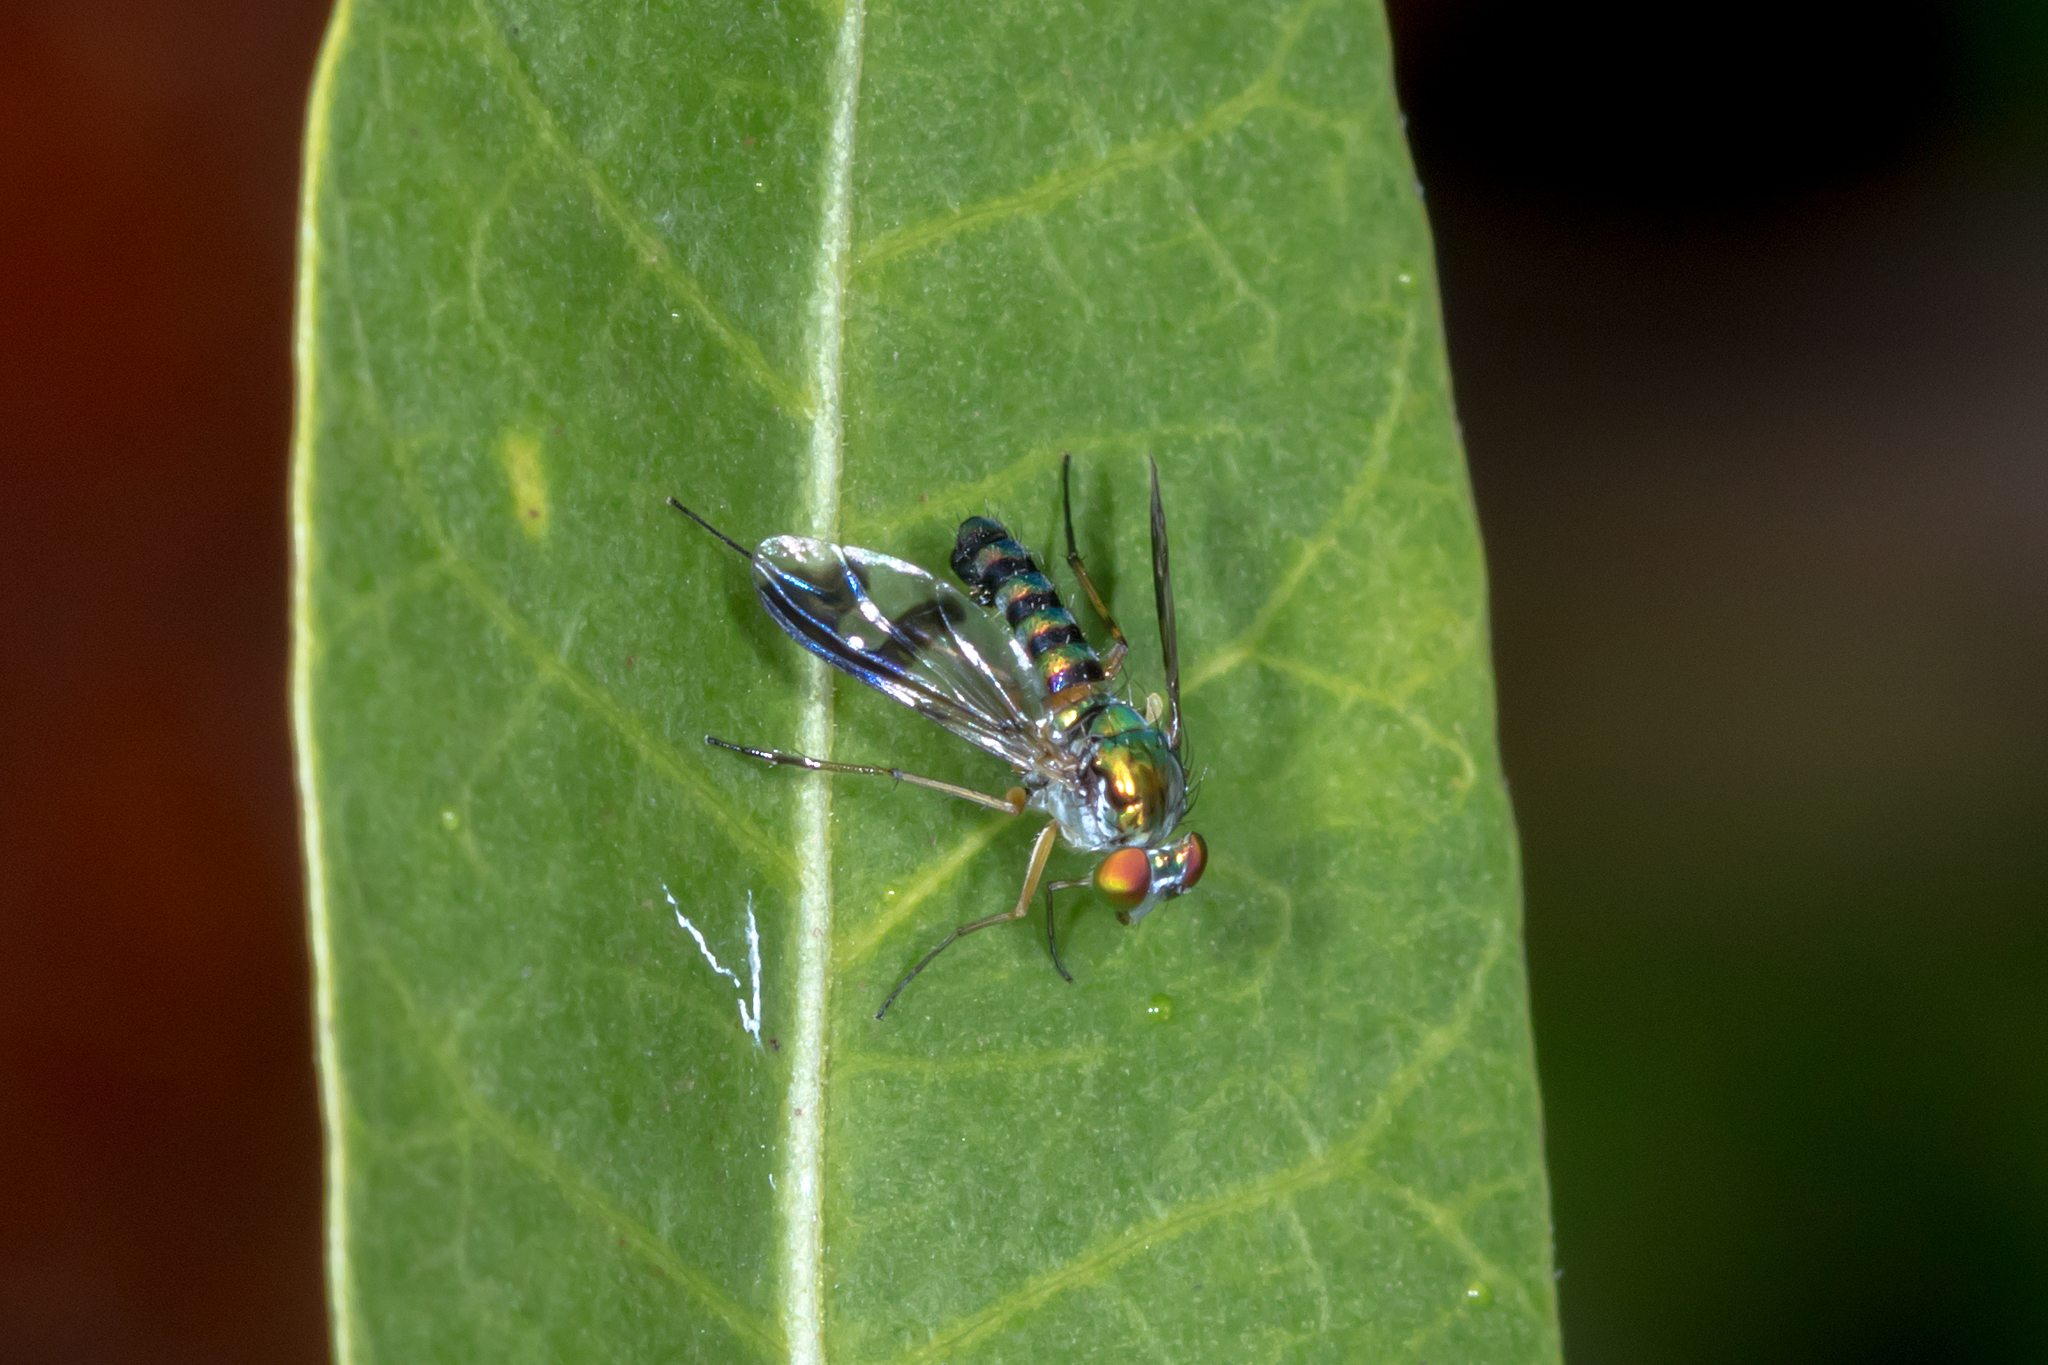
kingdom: Animalia
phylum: Arthropoda
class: Insecta
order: Diptera
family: Dolichopodidae
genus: Austrosciapus
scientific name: Austrosciapus connexus
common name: Green long-legged fly
